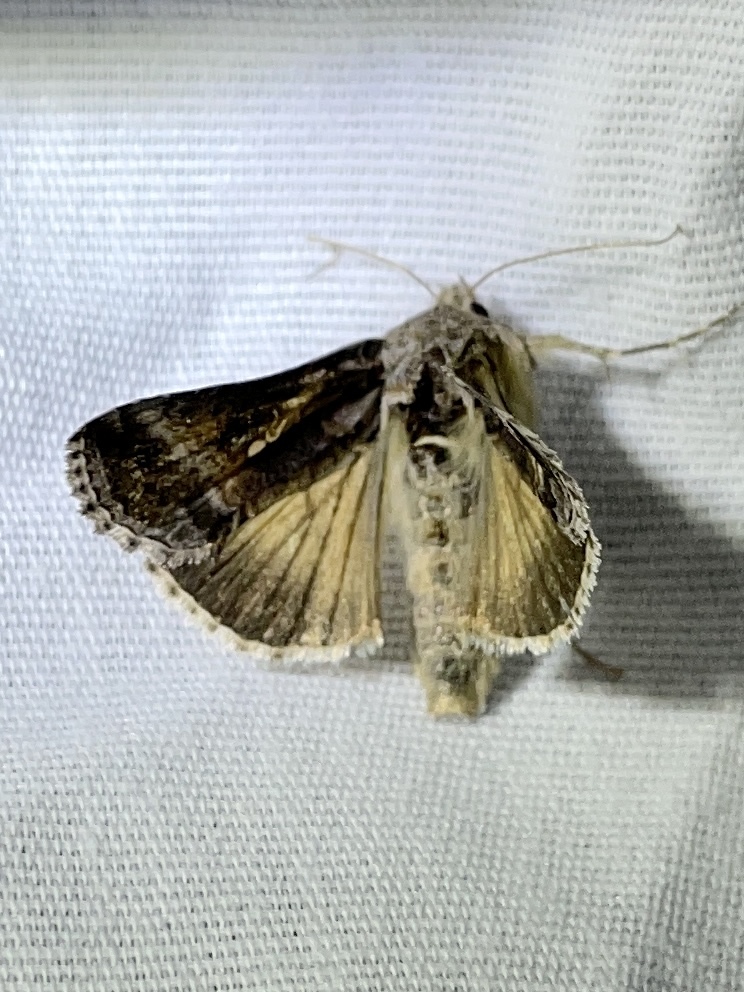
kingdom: Animalia
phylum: Arthropoda
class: Insecta
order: Lepidoptera
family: Noctuidae
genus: Rachiplusia
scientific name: Rachiplusia ou
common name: Gray looper moth
